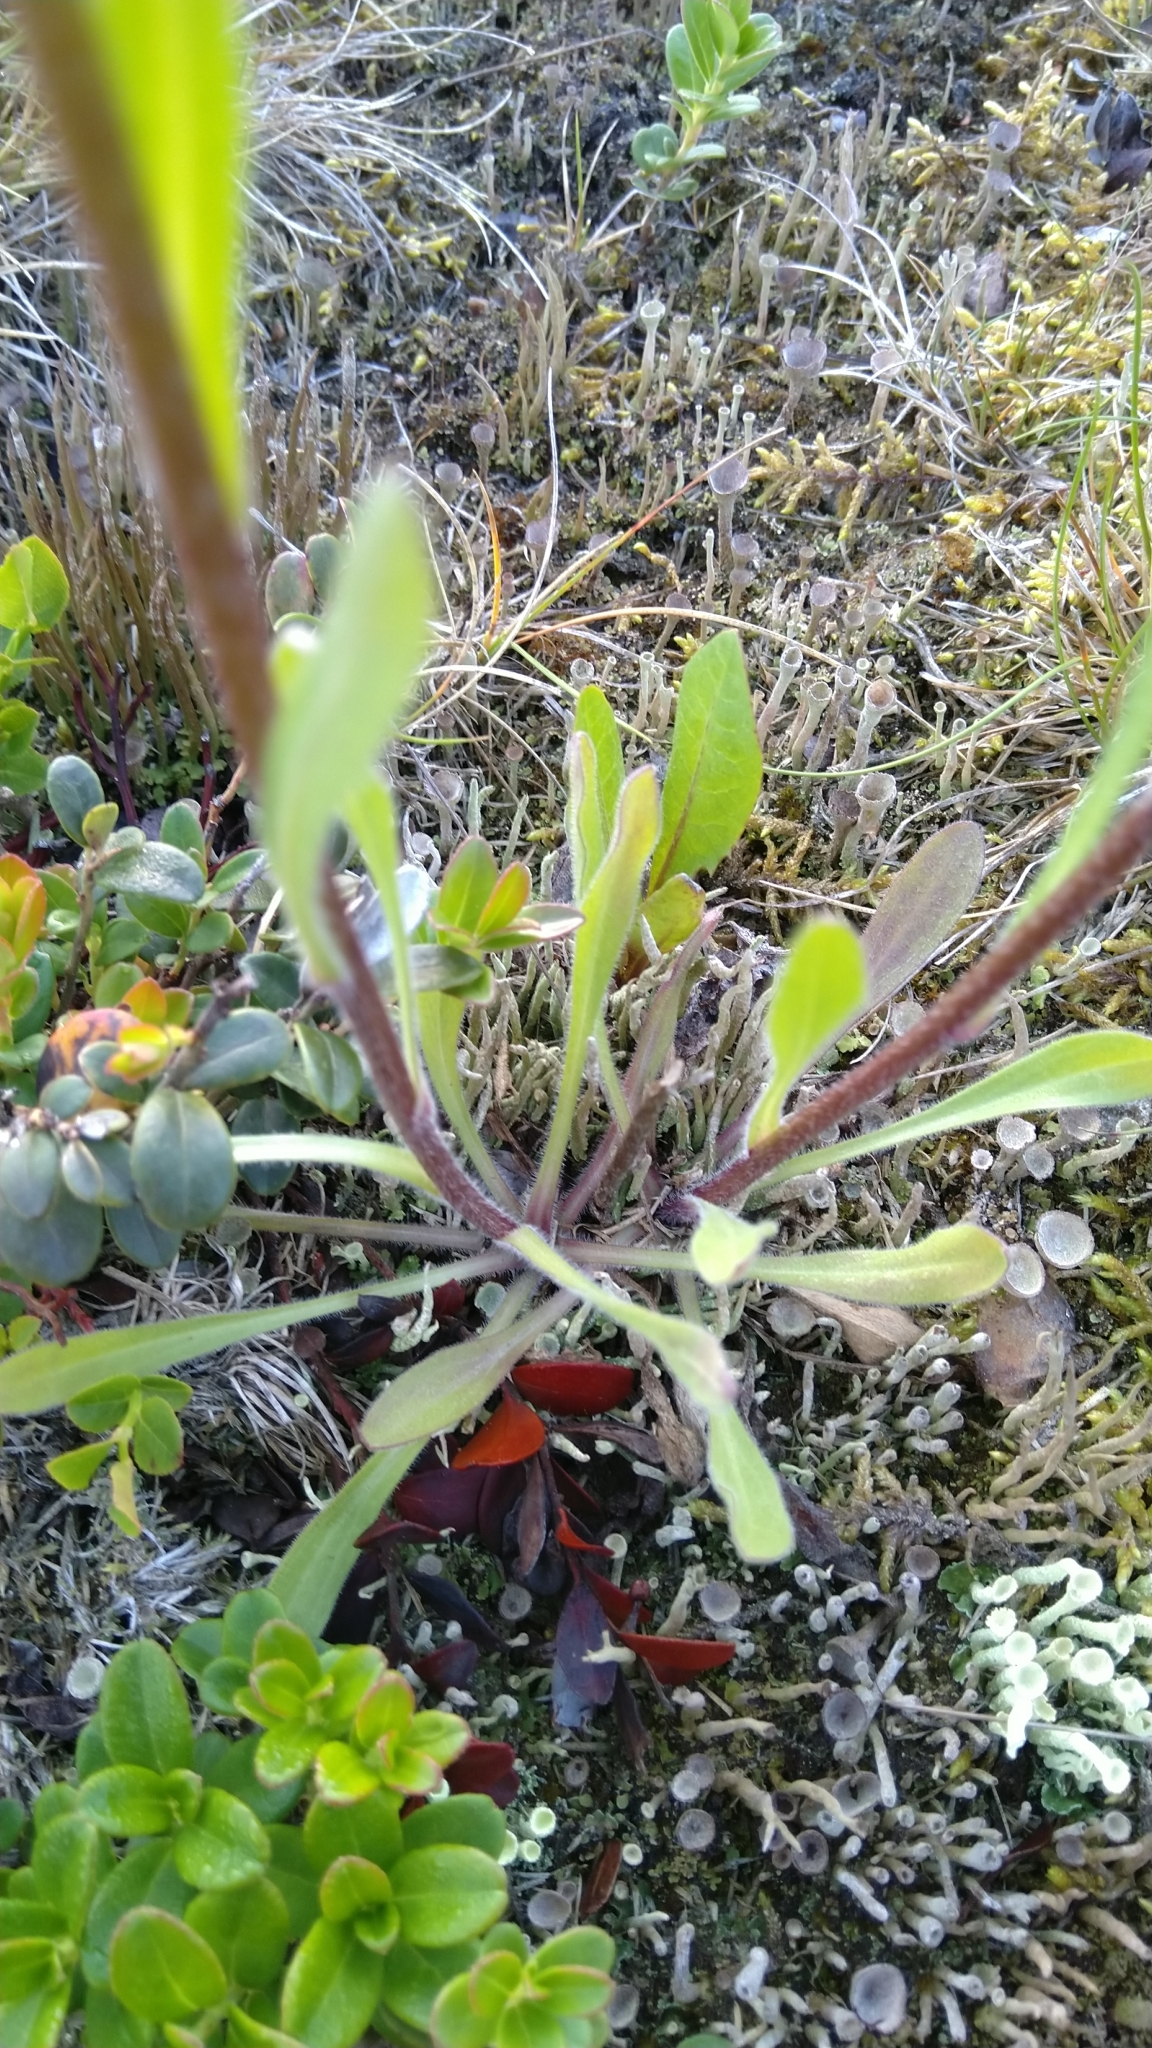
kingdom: Plantae
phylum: Tracheophyta
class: Magnoliopsida
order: Asterales
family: Asteraceae
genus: Erigeron
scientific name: Erigeron acris
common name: Blue fleabane
